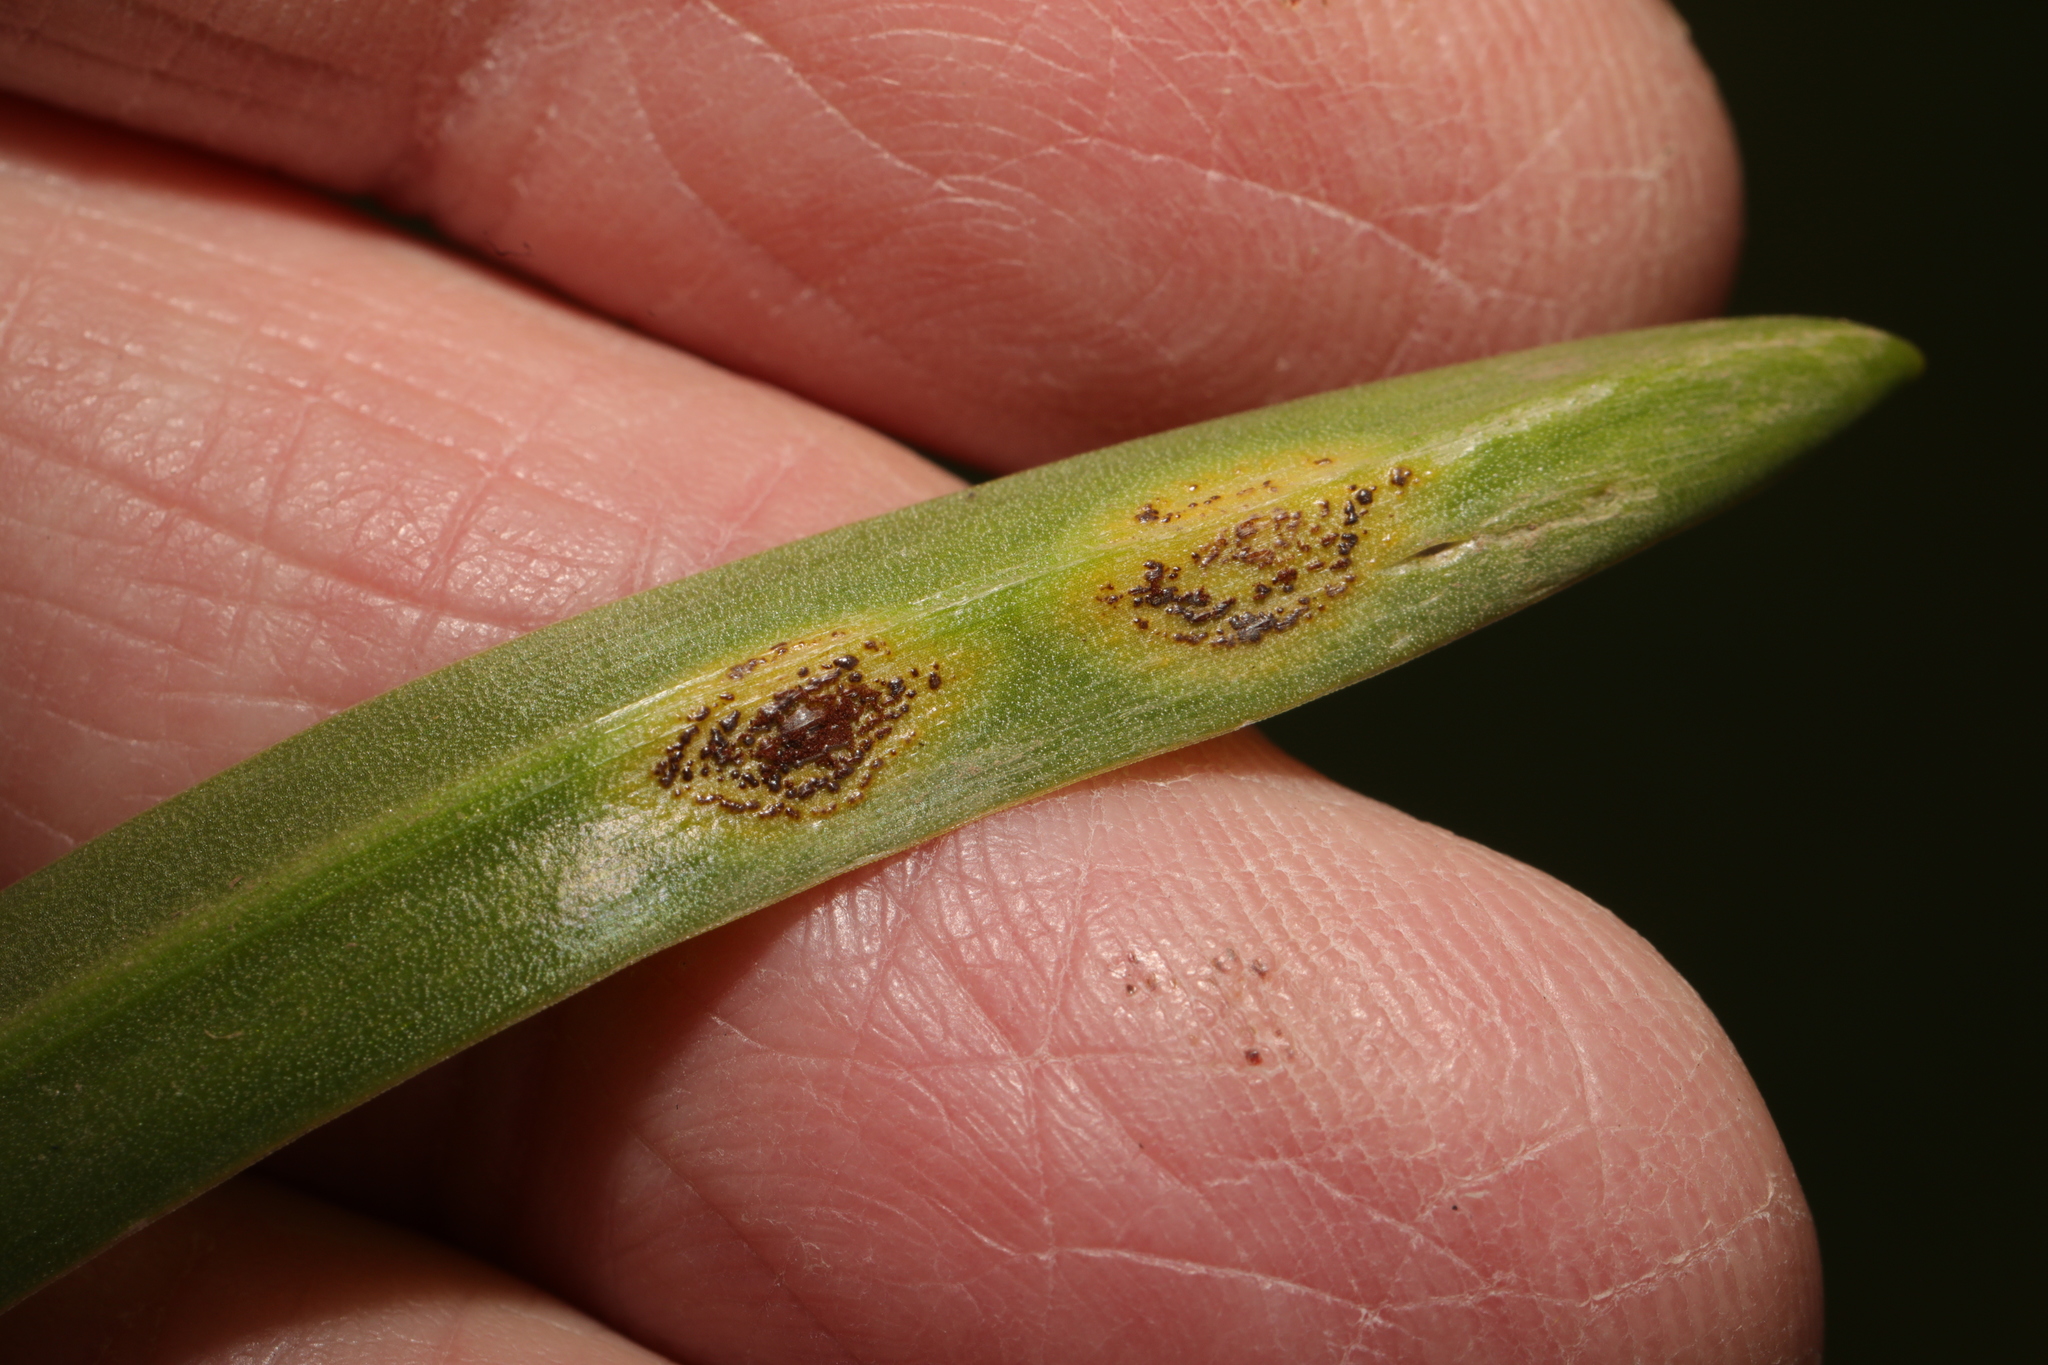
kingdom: Fungi
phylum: Basidiomycota
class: Pucciniomycetes
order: Pucciniales
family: Pucciniaceae
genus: Uromyces
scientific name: Uromyces hyacinthi
